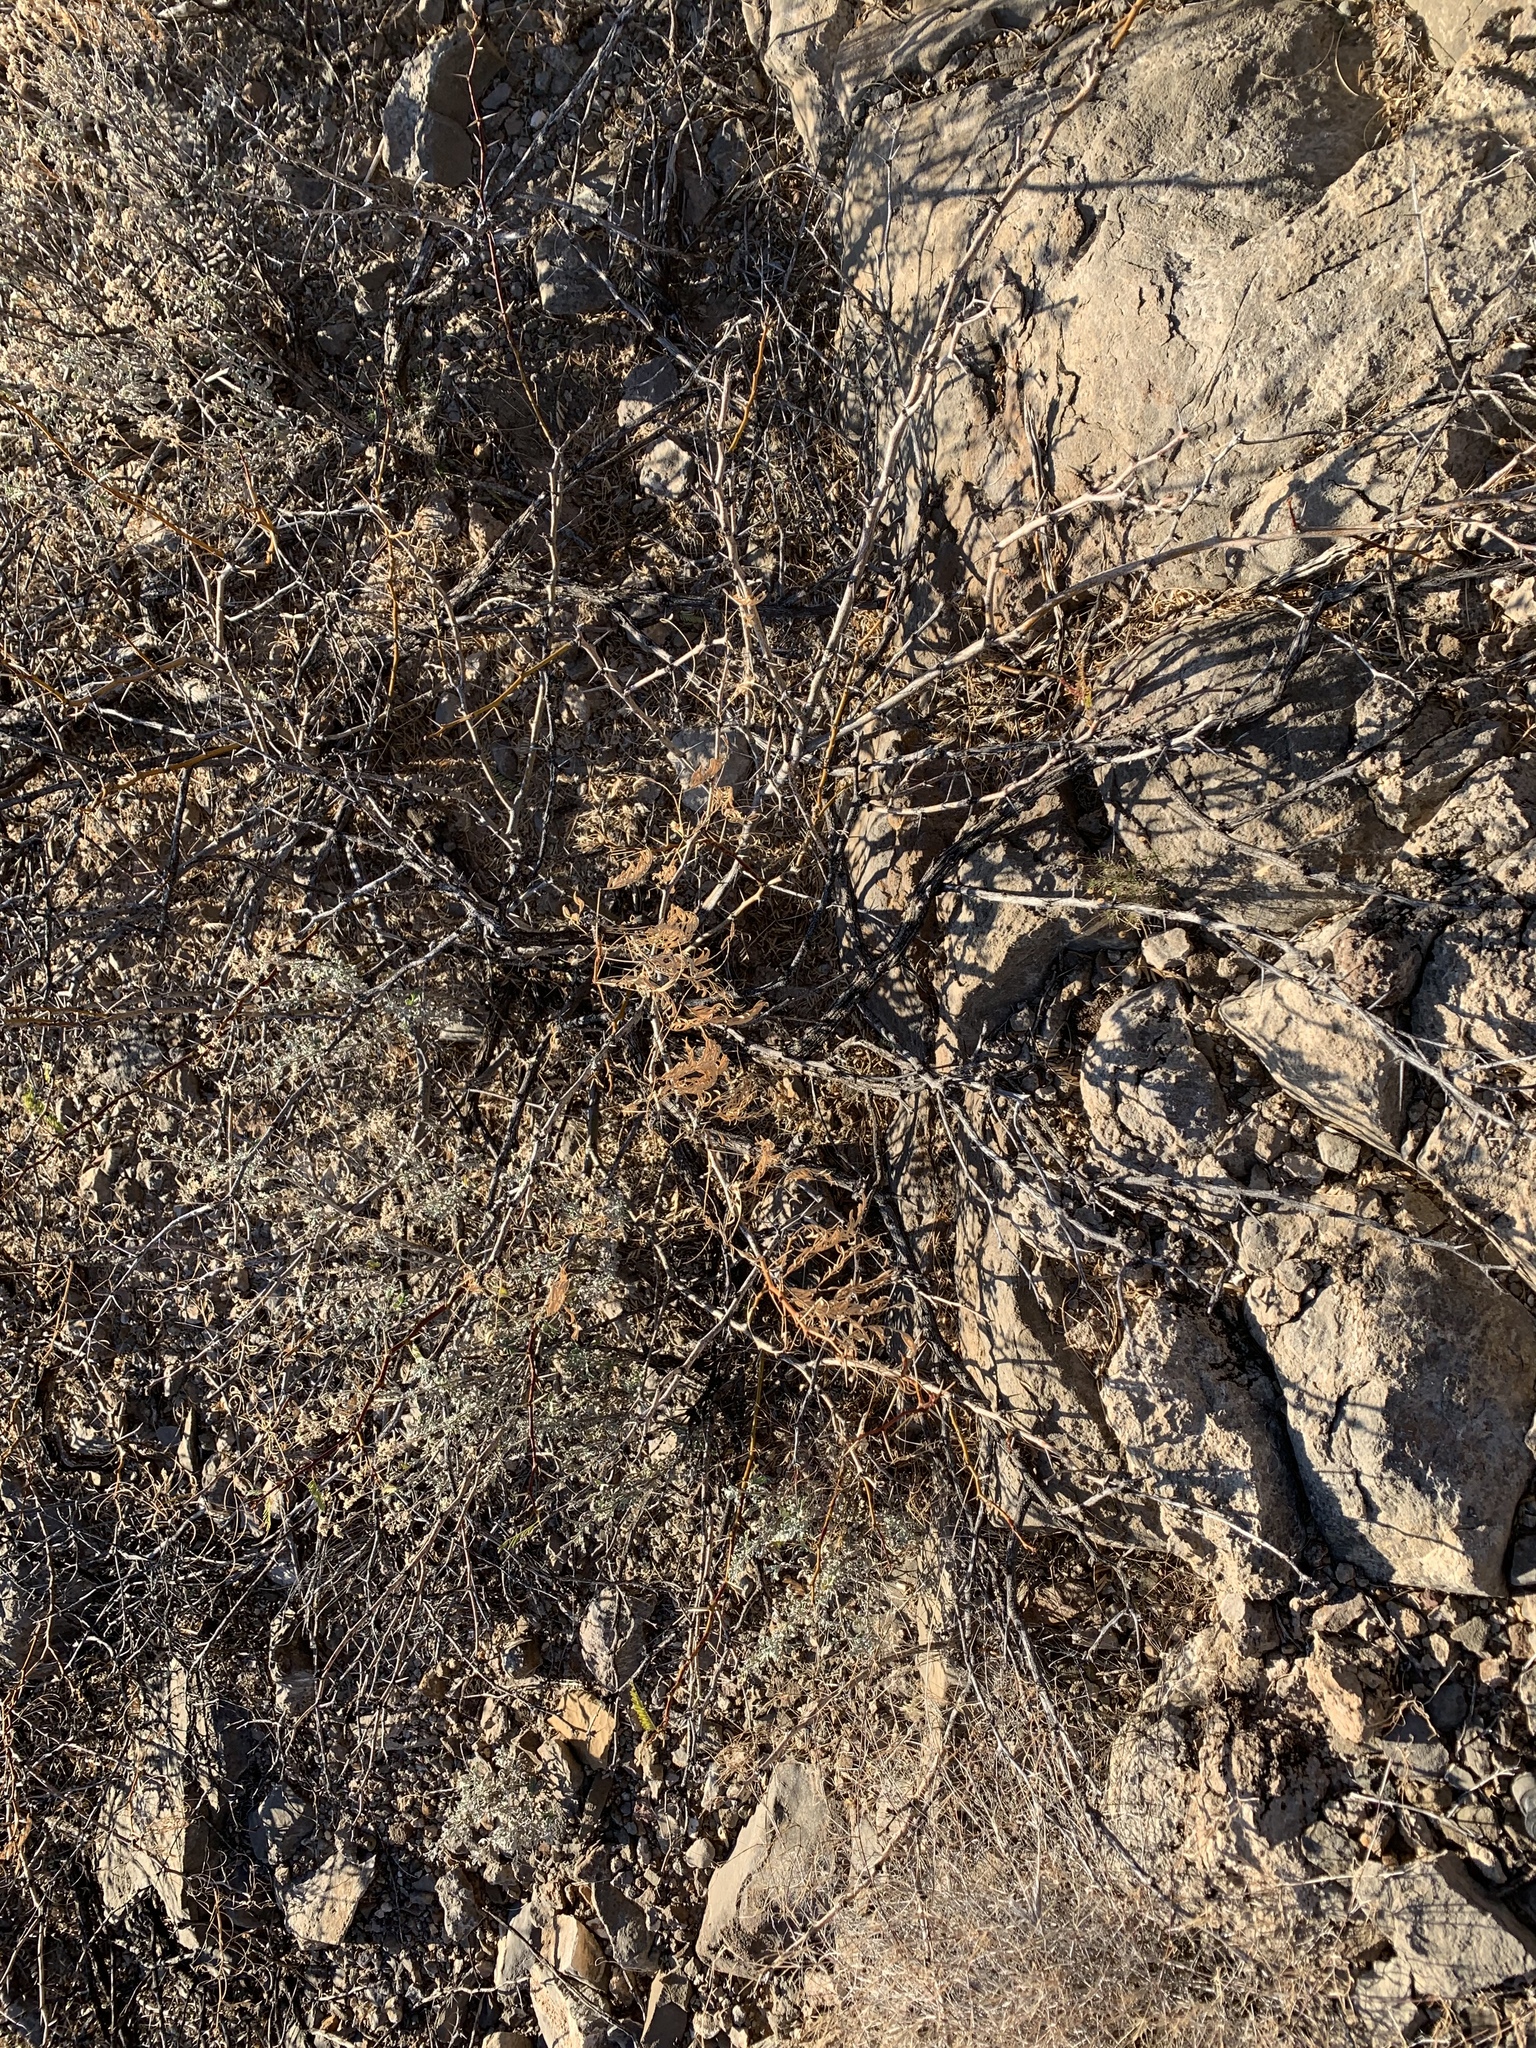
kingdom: Plantae
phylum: Tracheophyta
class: Magnoliopsida
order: Fabales
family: Fabaceae
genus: Prosopis
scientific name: Prosopis glandulosa
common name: Honey mesquite
